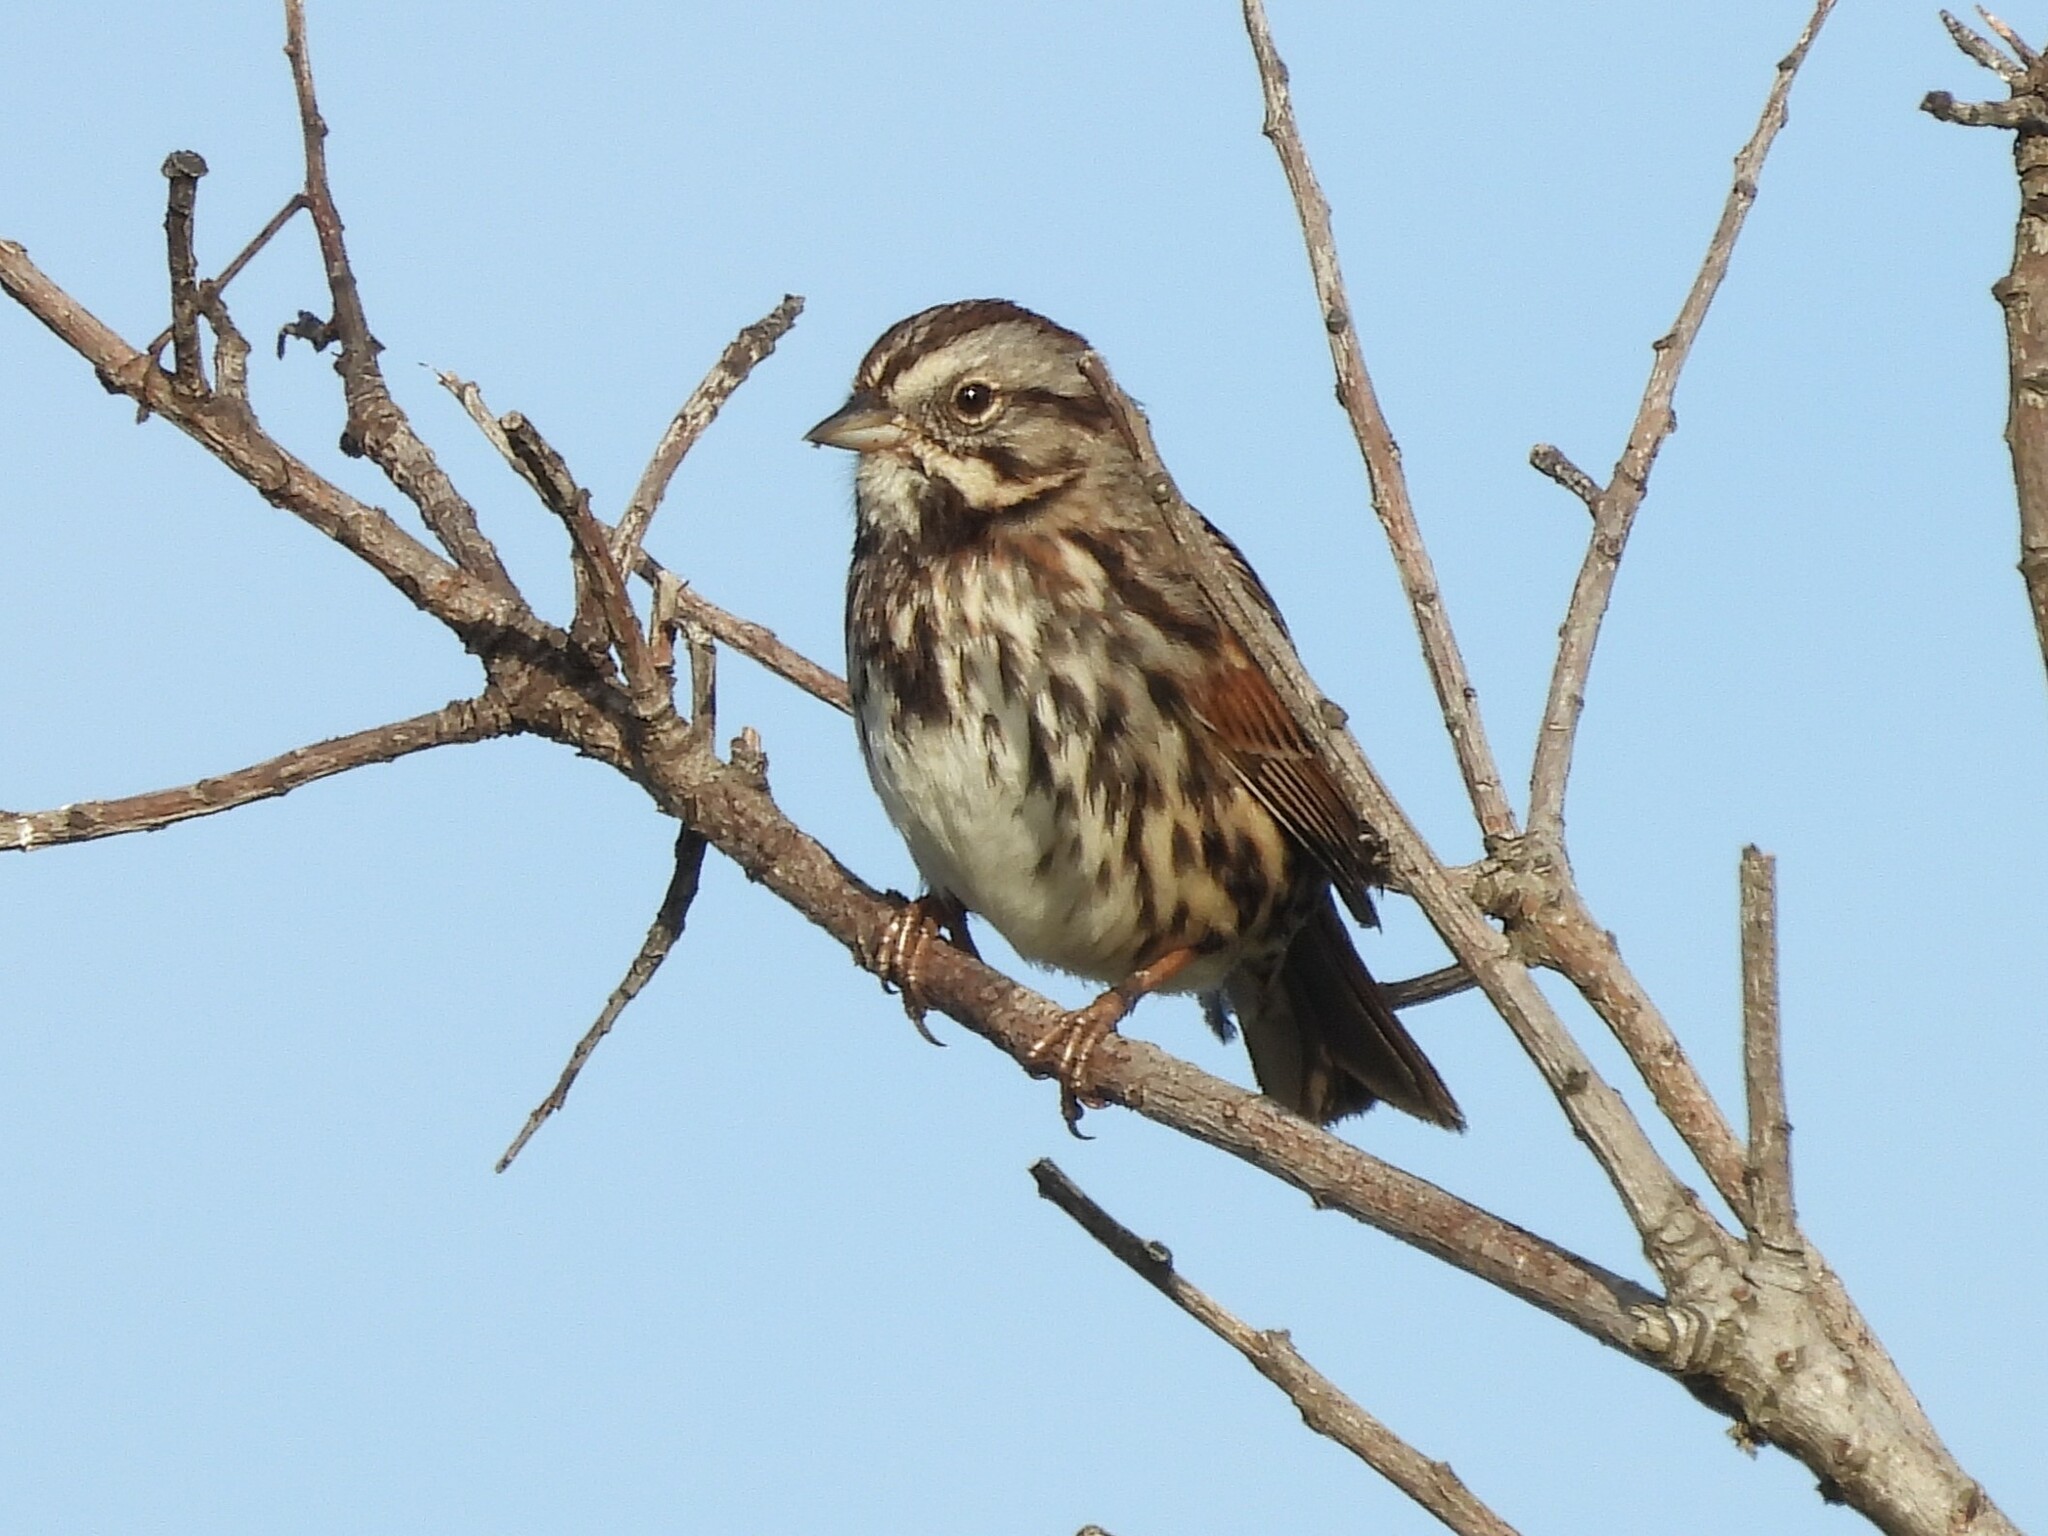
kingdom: Animalia
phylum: Chordata
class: Aves
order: Passeriformes
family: Passerellidae
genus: Melospiza
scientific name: Melospiza melodia
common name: Song sparrow
